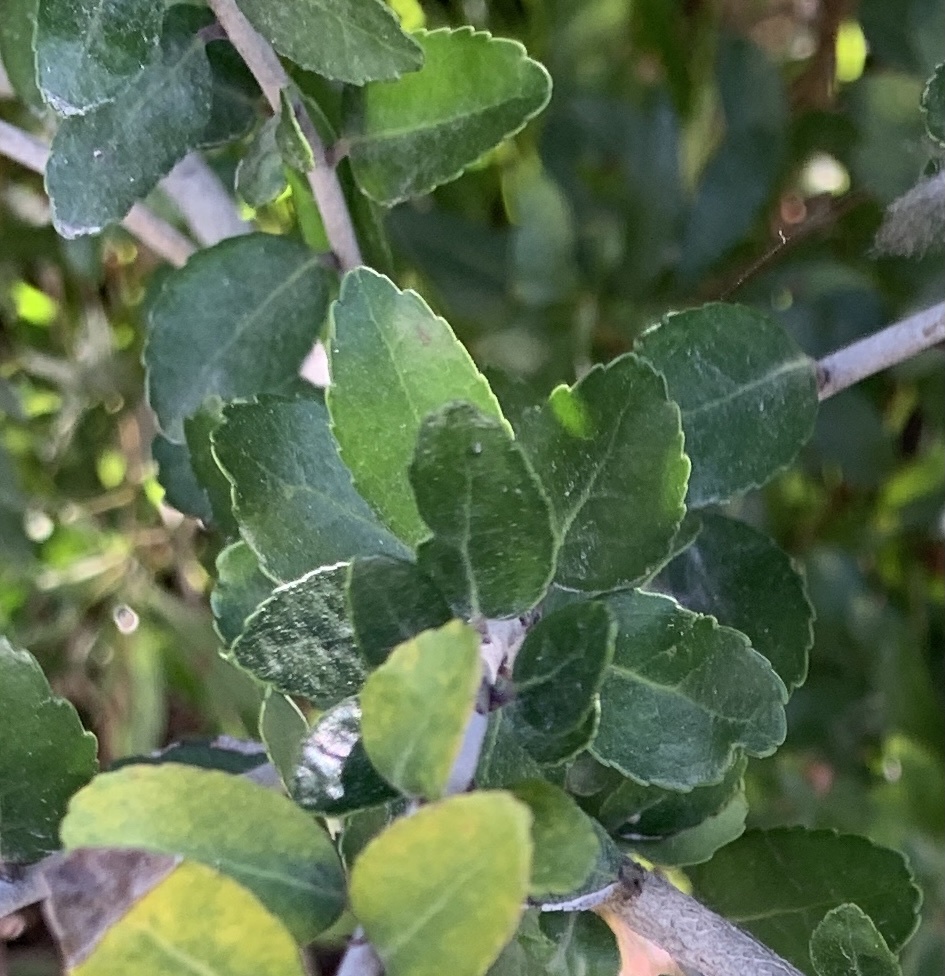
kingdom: Plantae
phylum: Tracheophyta
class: Magnoliopsida
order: Aquifoliales
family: Aquifoliaceae
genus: Ilex
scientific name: Ilex vomitoria
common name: Yaupon holly
